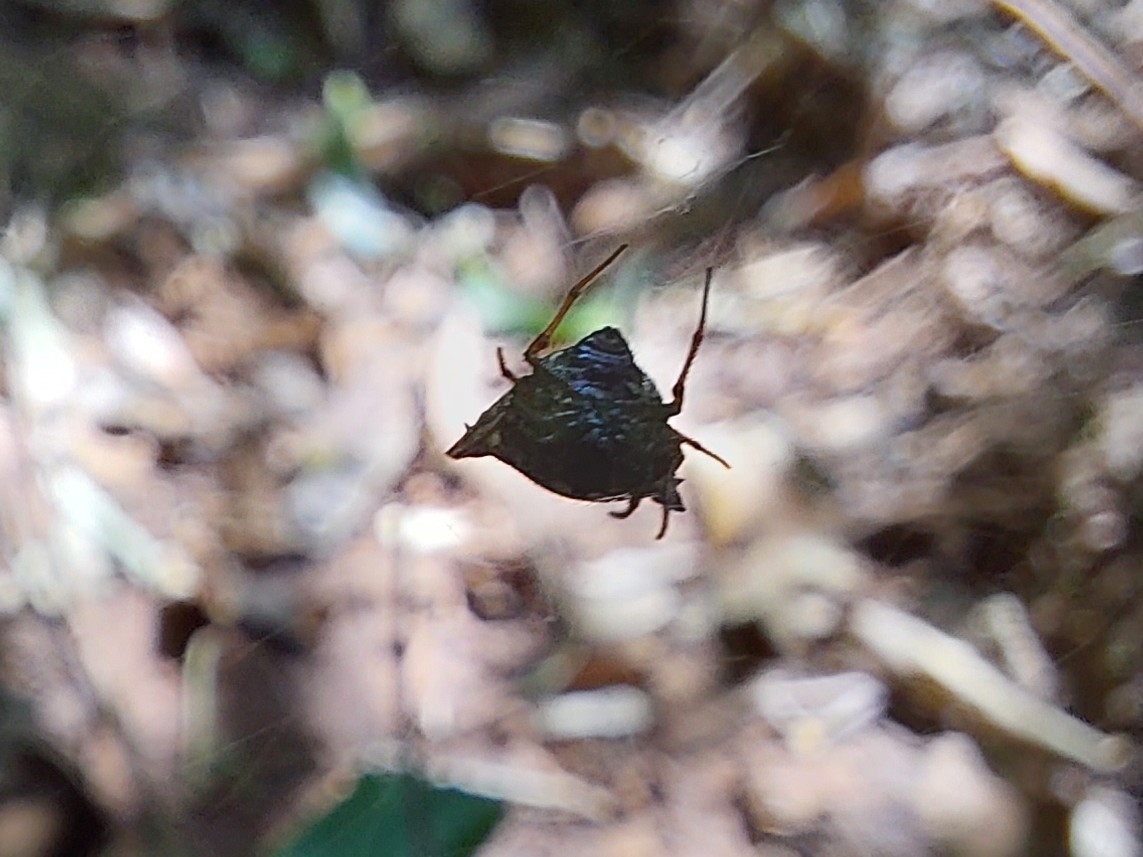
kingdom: Animalia
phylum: Arthropoda
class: Arachnida
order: Araneae
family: Araneidae
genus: Micrathena
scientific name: Micrathena plana
